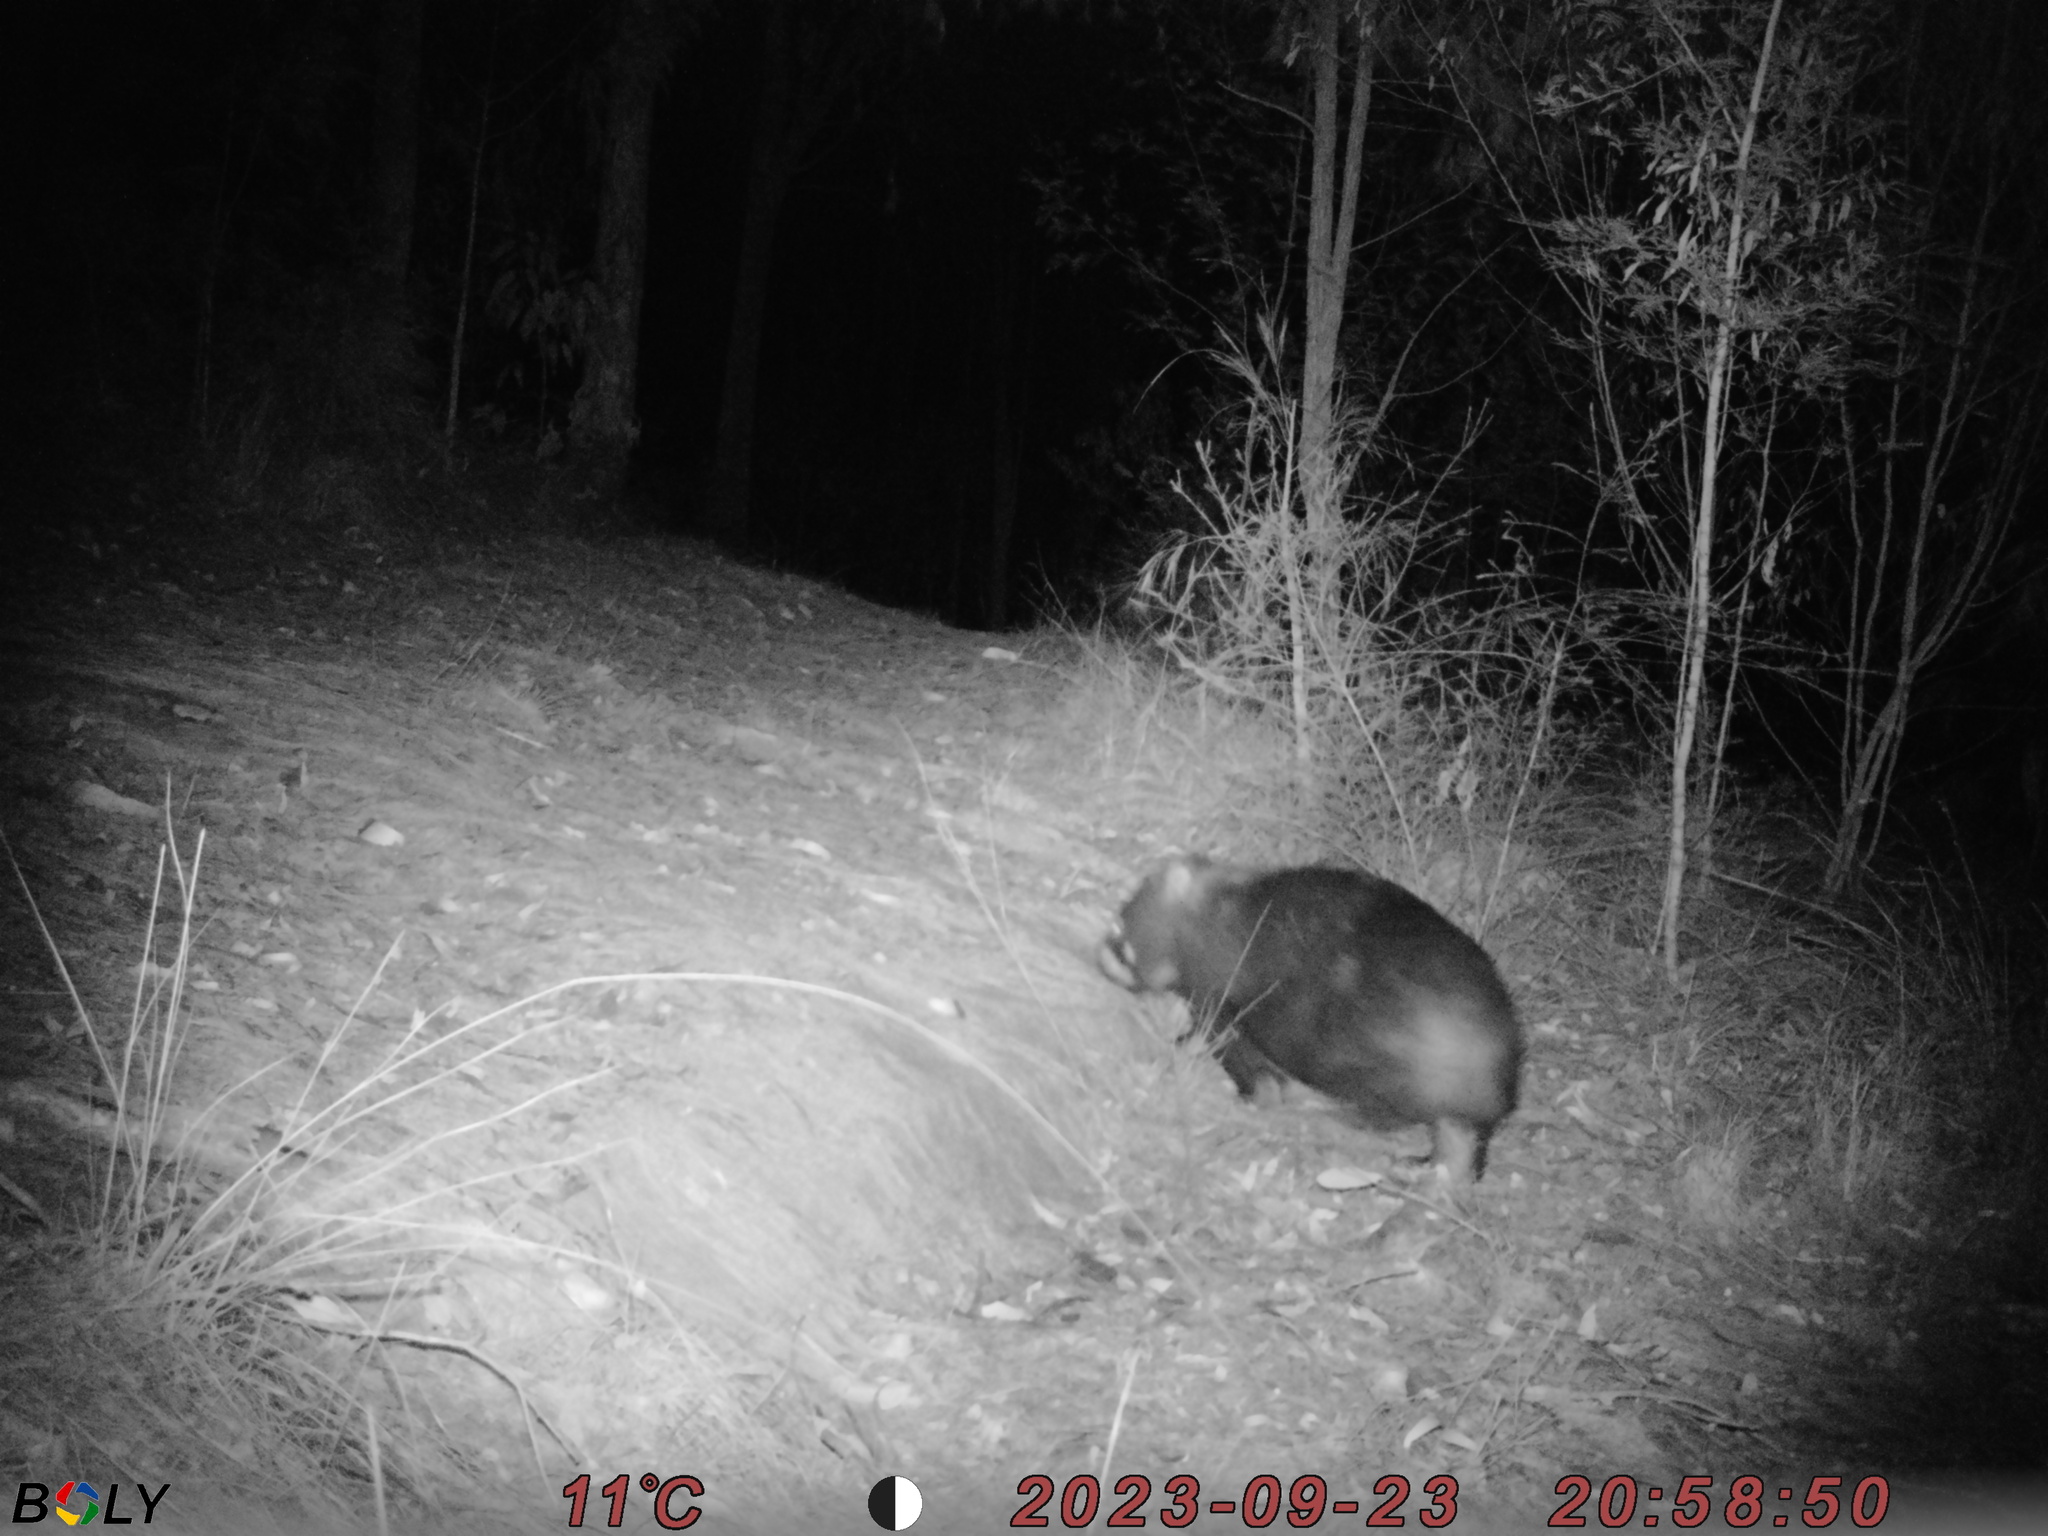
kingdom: Animalia
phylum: Chordata
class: Mammalia
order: Diprotodontia
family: Vombatidae
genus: Vombatus
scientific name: Vombatus ursinus
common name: Common wombat
